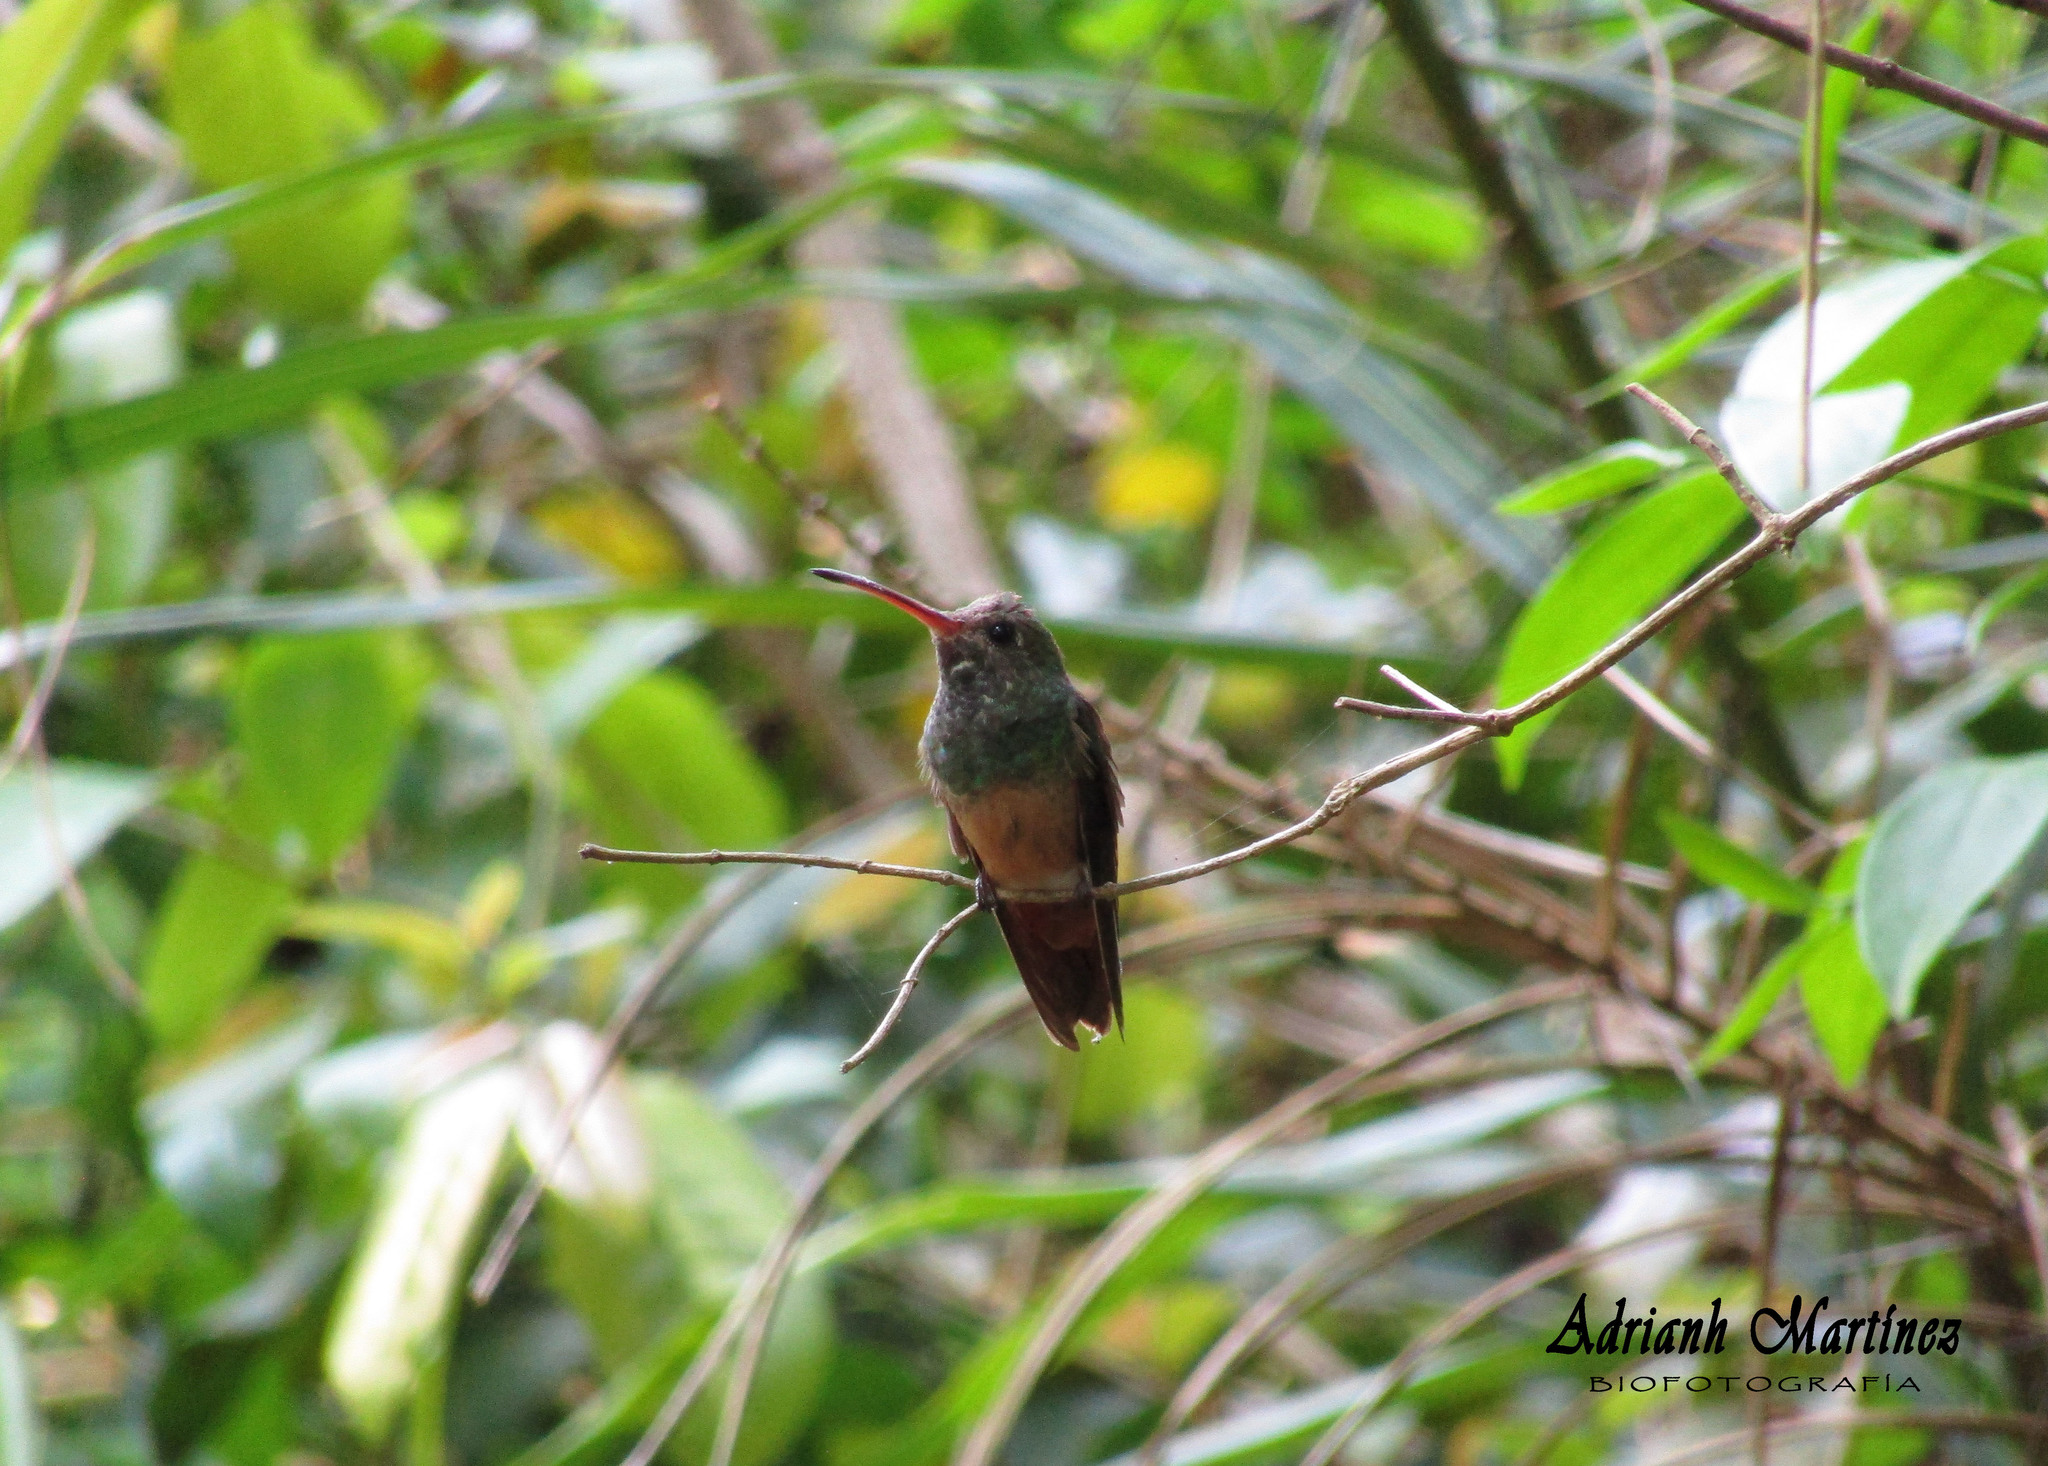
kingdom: Animalia
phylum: Chordata
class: Aves
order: Apodiformes
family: Trochilidae
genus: Amazilia
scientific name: Amazilia yucatanensis
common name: Buff-bellied hummingbird
